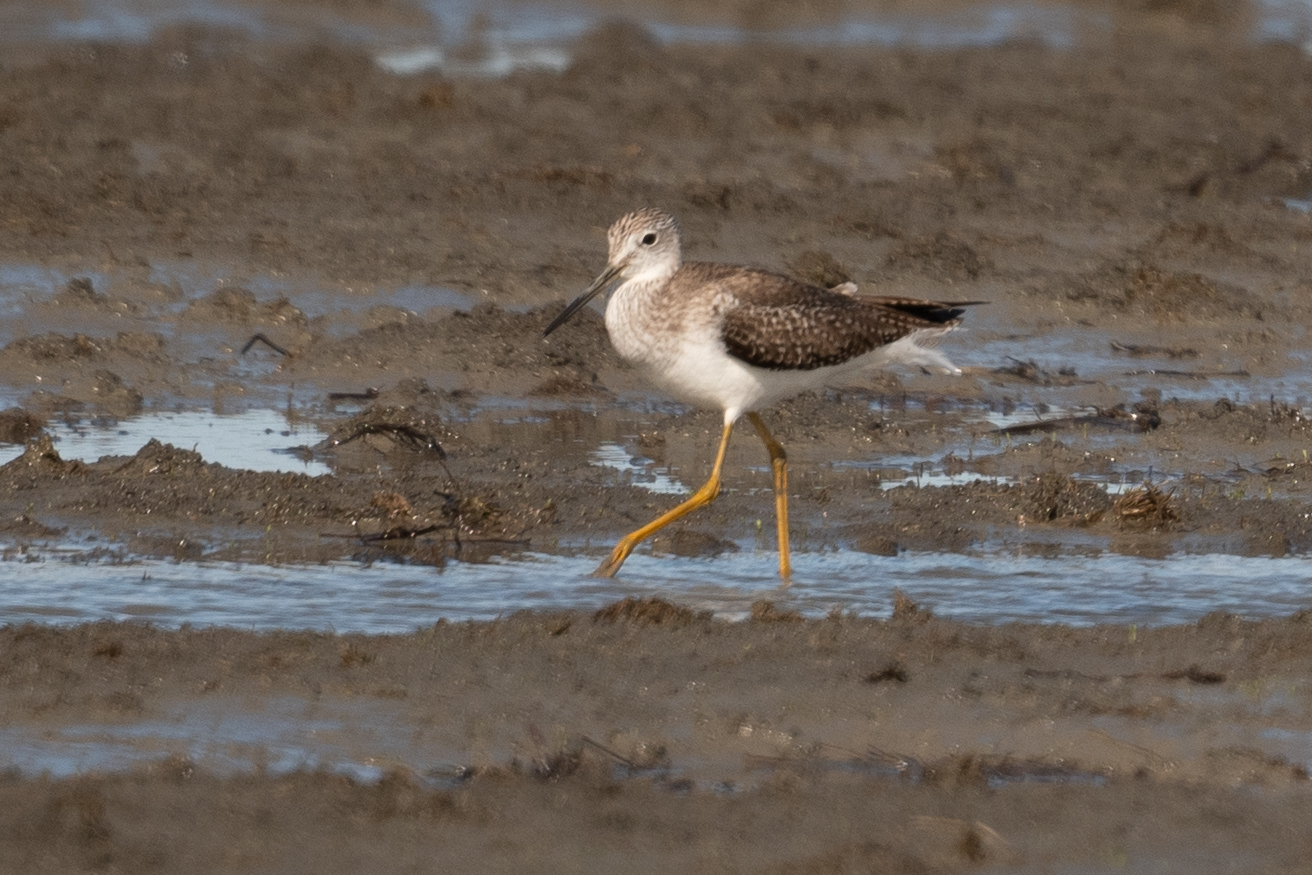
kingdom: Animalia
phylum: Chordata
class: Aves
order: Charadriiformes
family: Scolopacidae
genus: Tringa
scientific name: Tringa melanoleuca
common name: Greater yellowlegs
